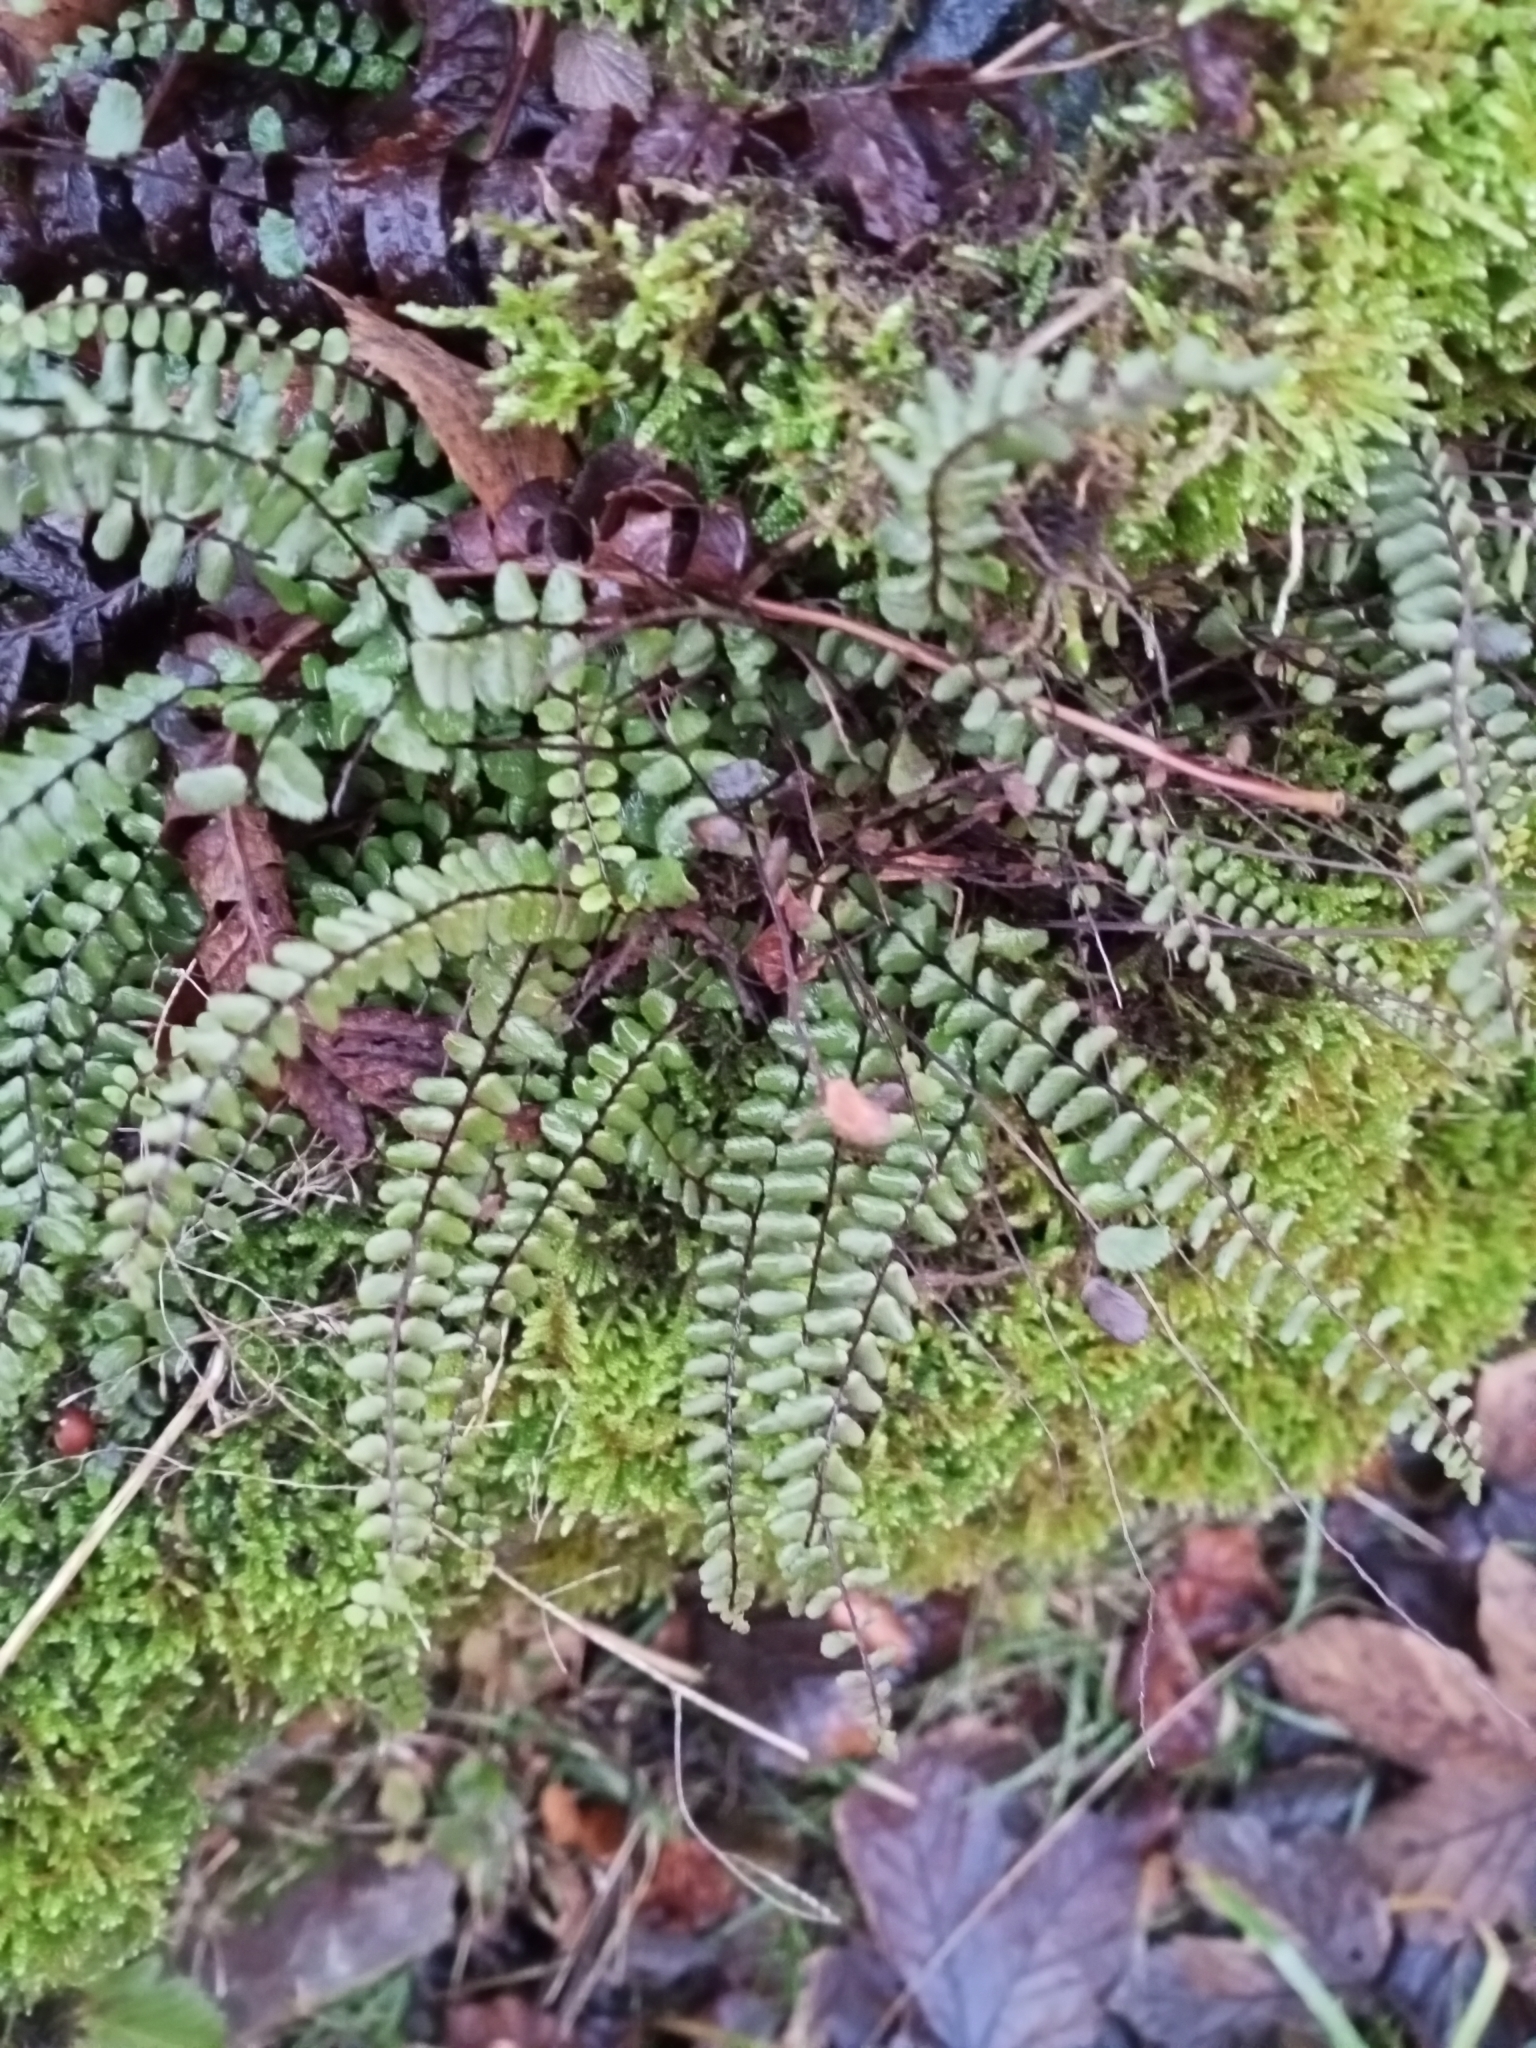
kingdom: Plantae
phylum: Tracheophyta
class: Polypodiopsida
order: Polypodiales
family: Aspleniaceae
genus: Asplenium
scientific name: Asplenium trichomanes
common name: Maidenhair spleenwort
